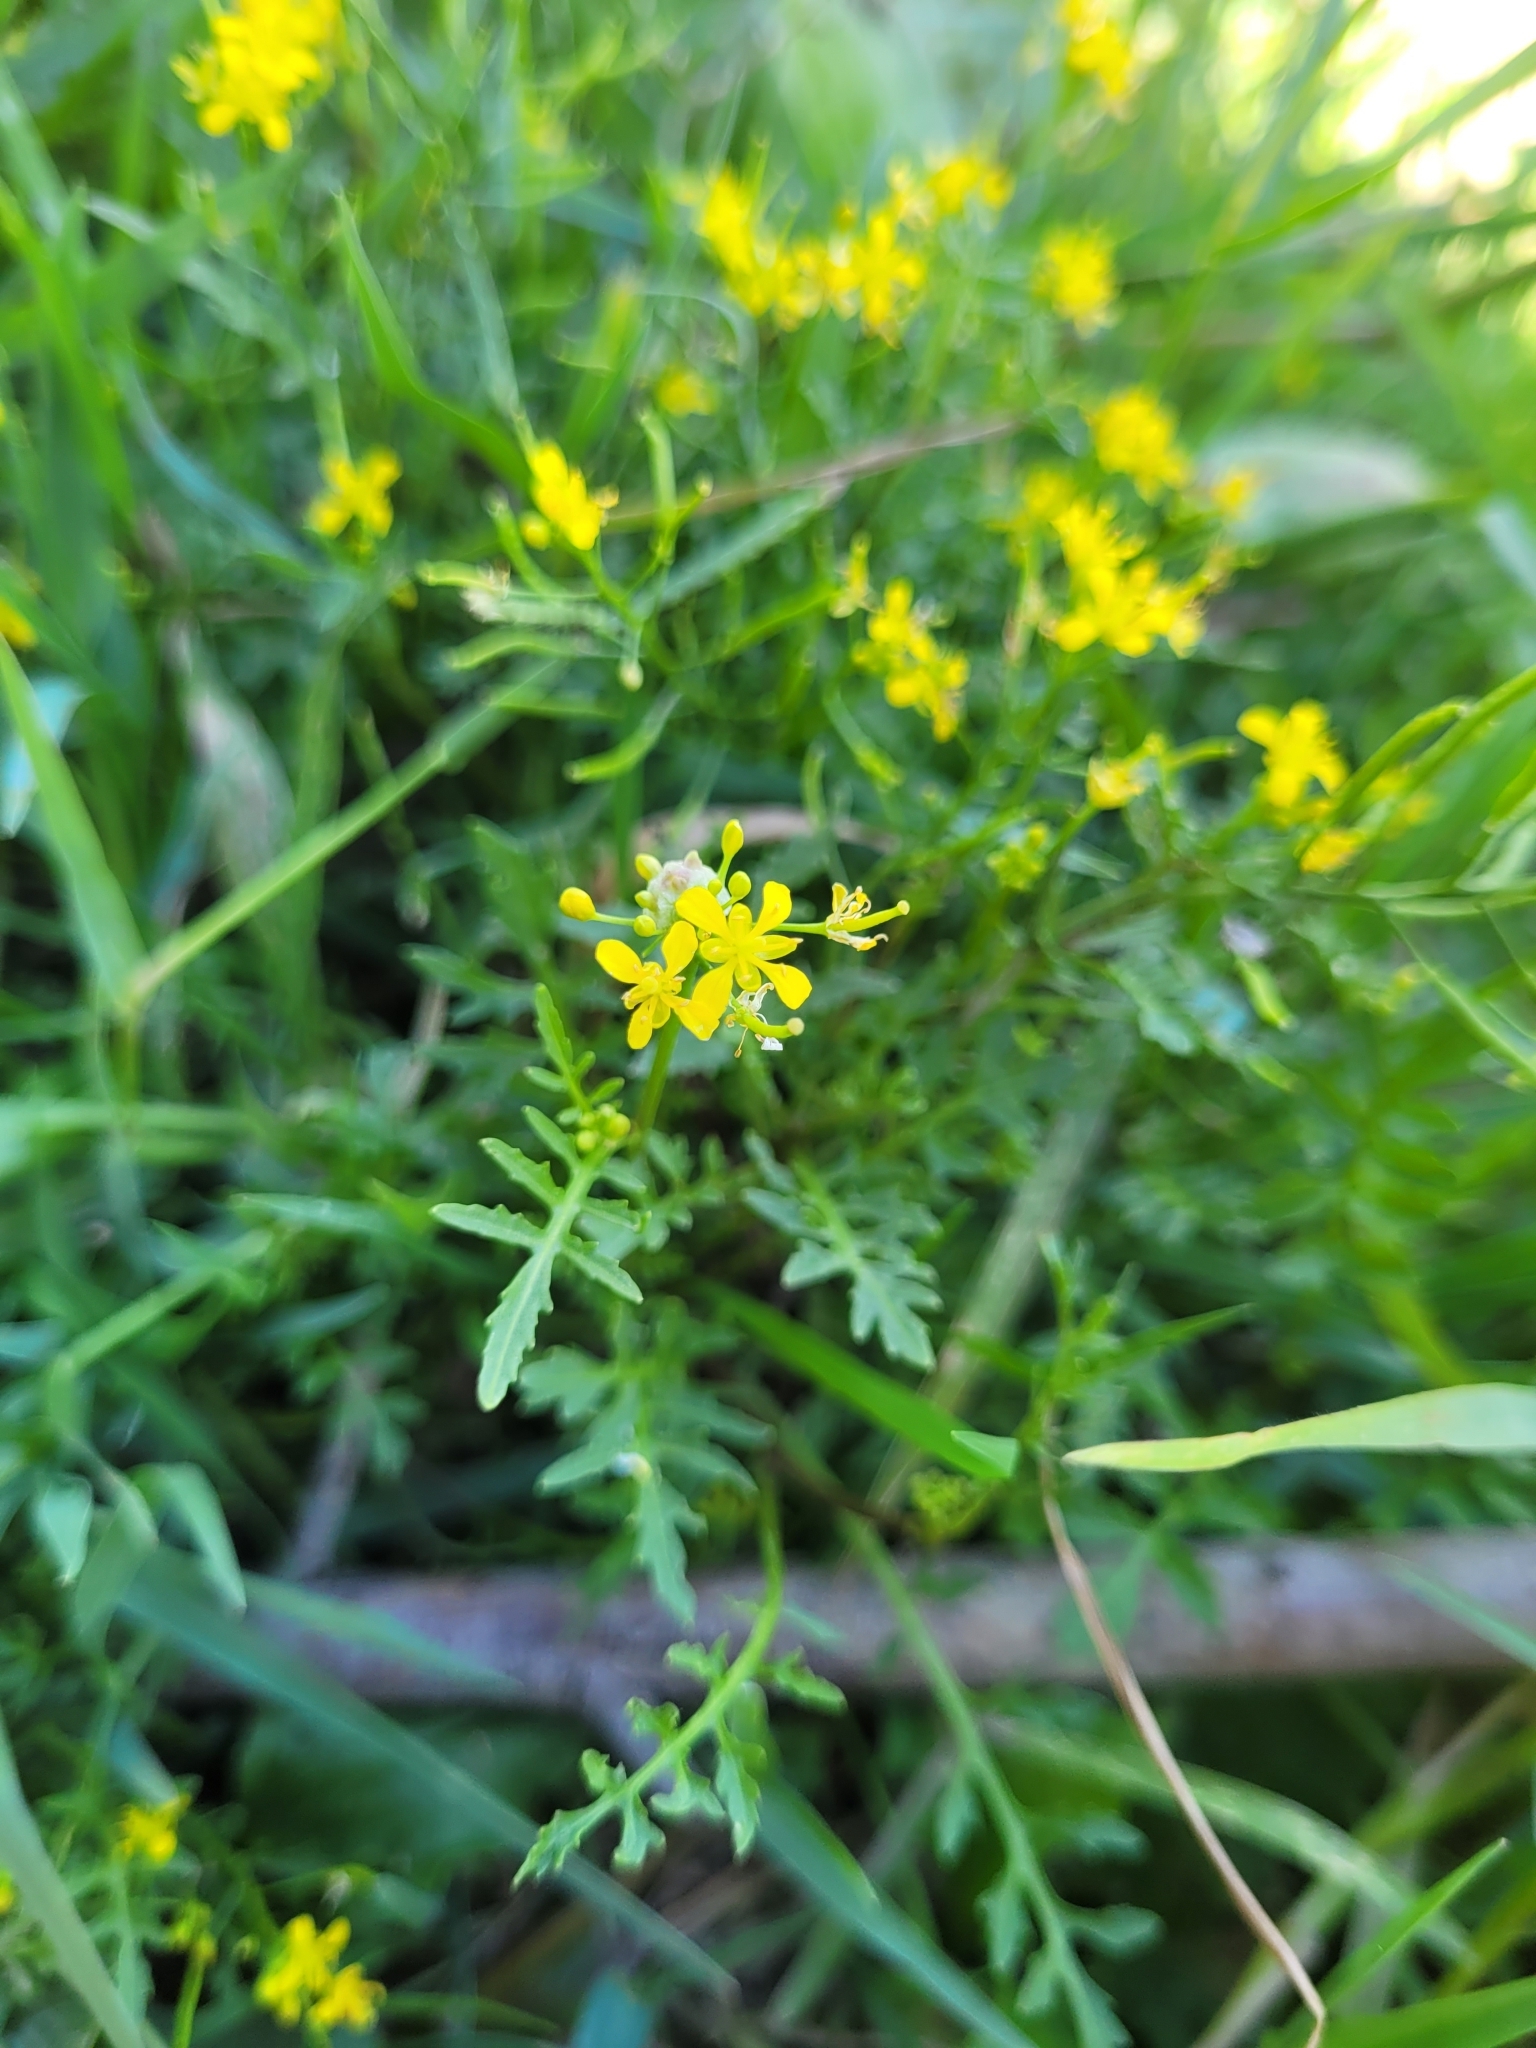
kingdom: Plantae
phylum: Tracheophyta
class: Magnoliopsida
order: Brassicales
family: Brassicaceae
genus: Rorippa
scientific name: Rorippa sylvestris
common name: Creeping yellowcress
